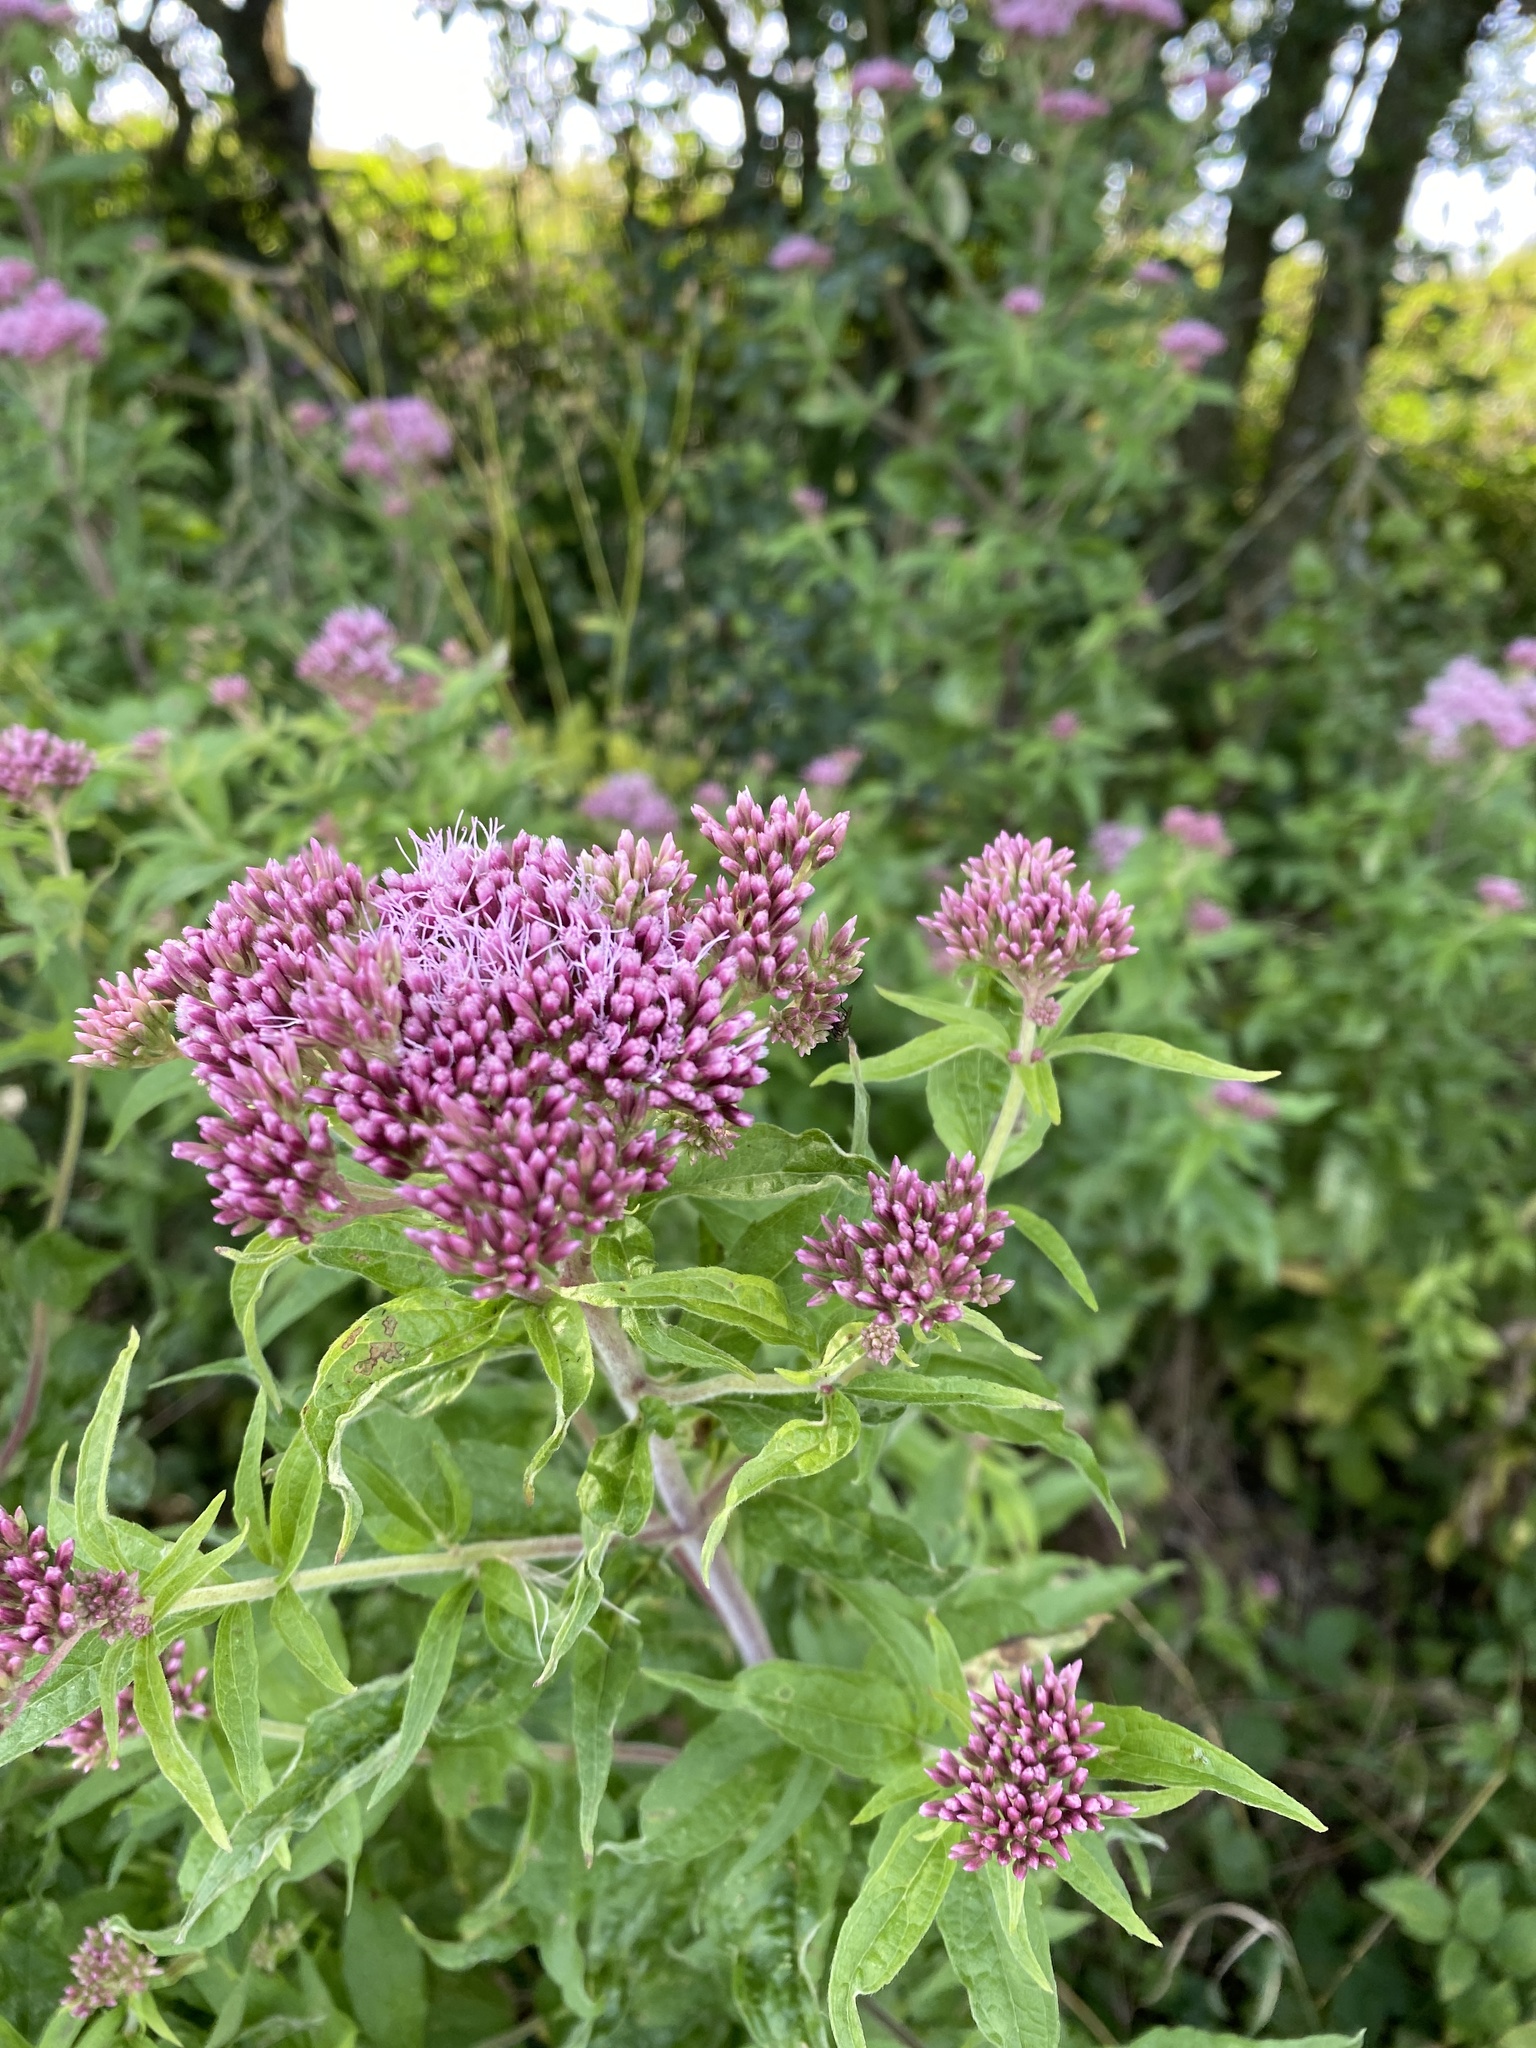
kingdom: Plantae
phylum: Tracheophyta
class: Magnoliopsida
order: Asterales
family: Asteraceae
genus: Eupatorium
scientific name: Eupatorium cannabinum
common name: Hemp-agrimony
